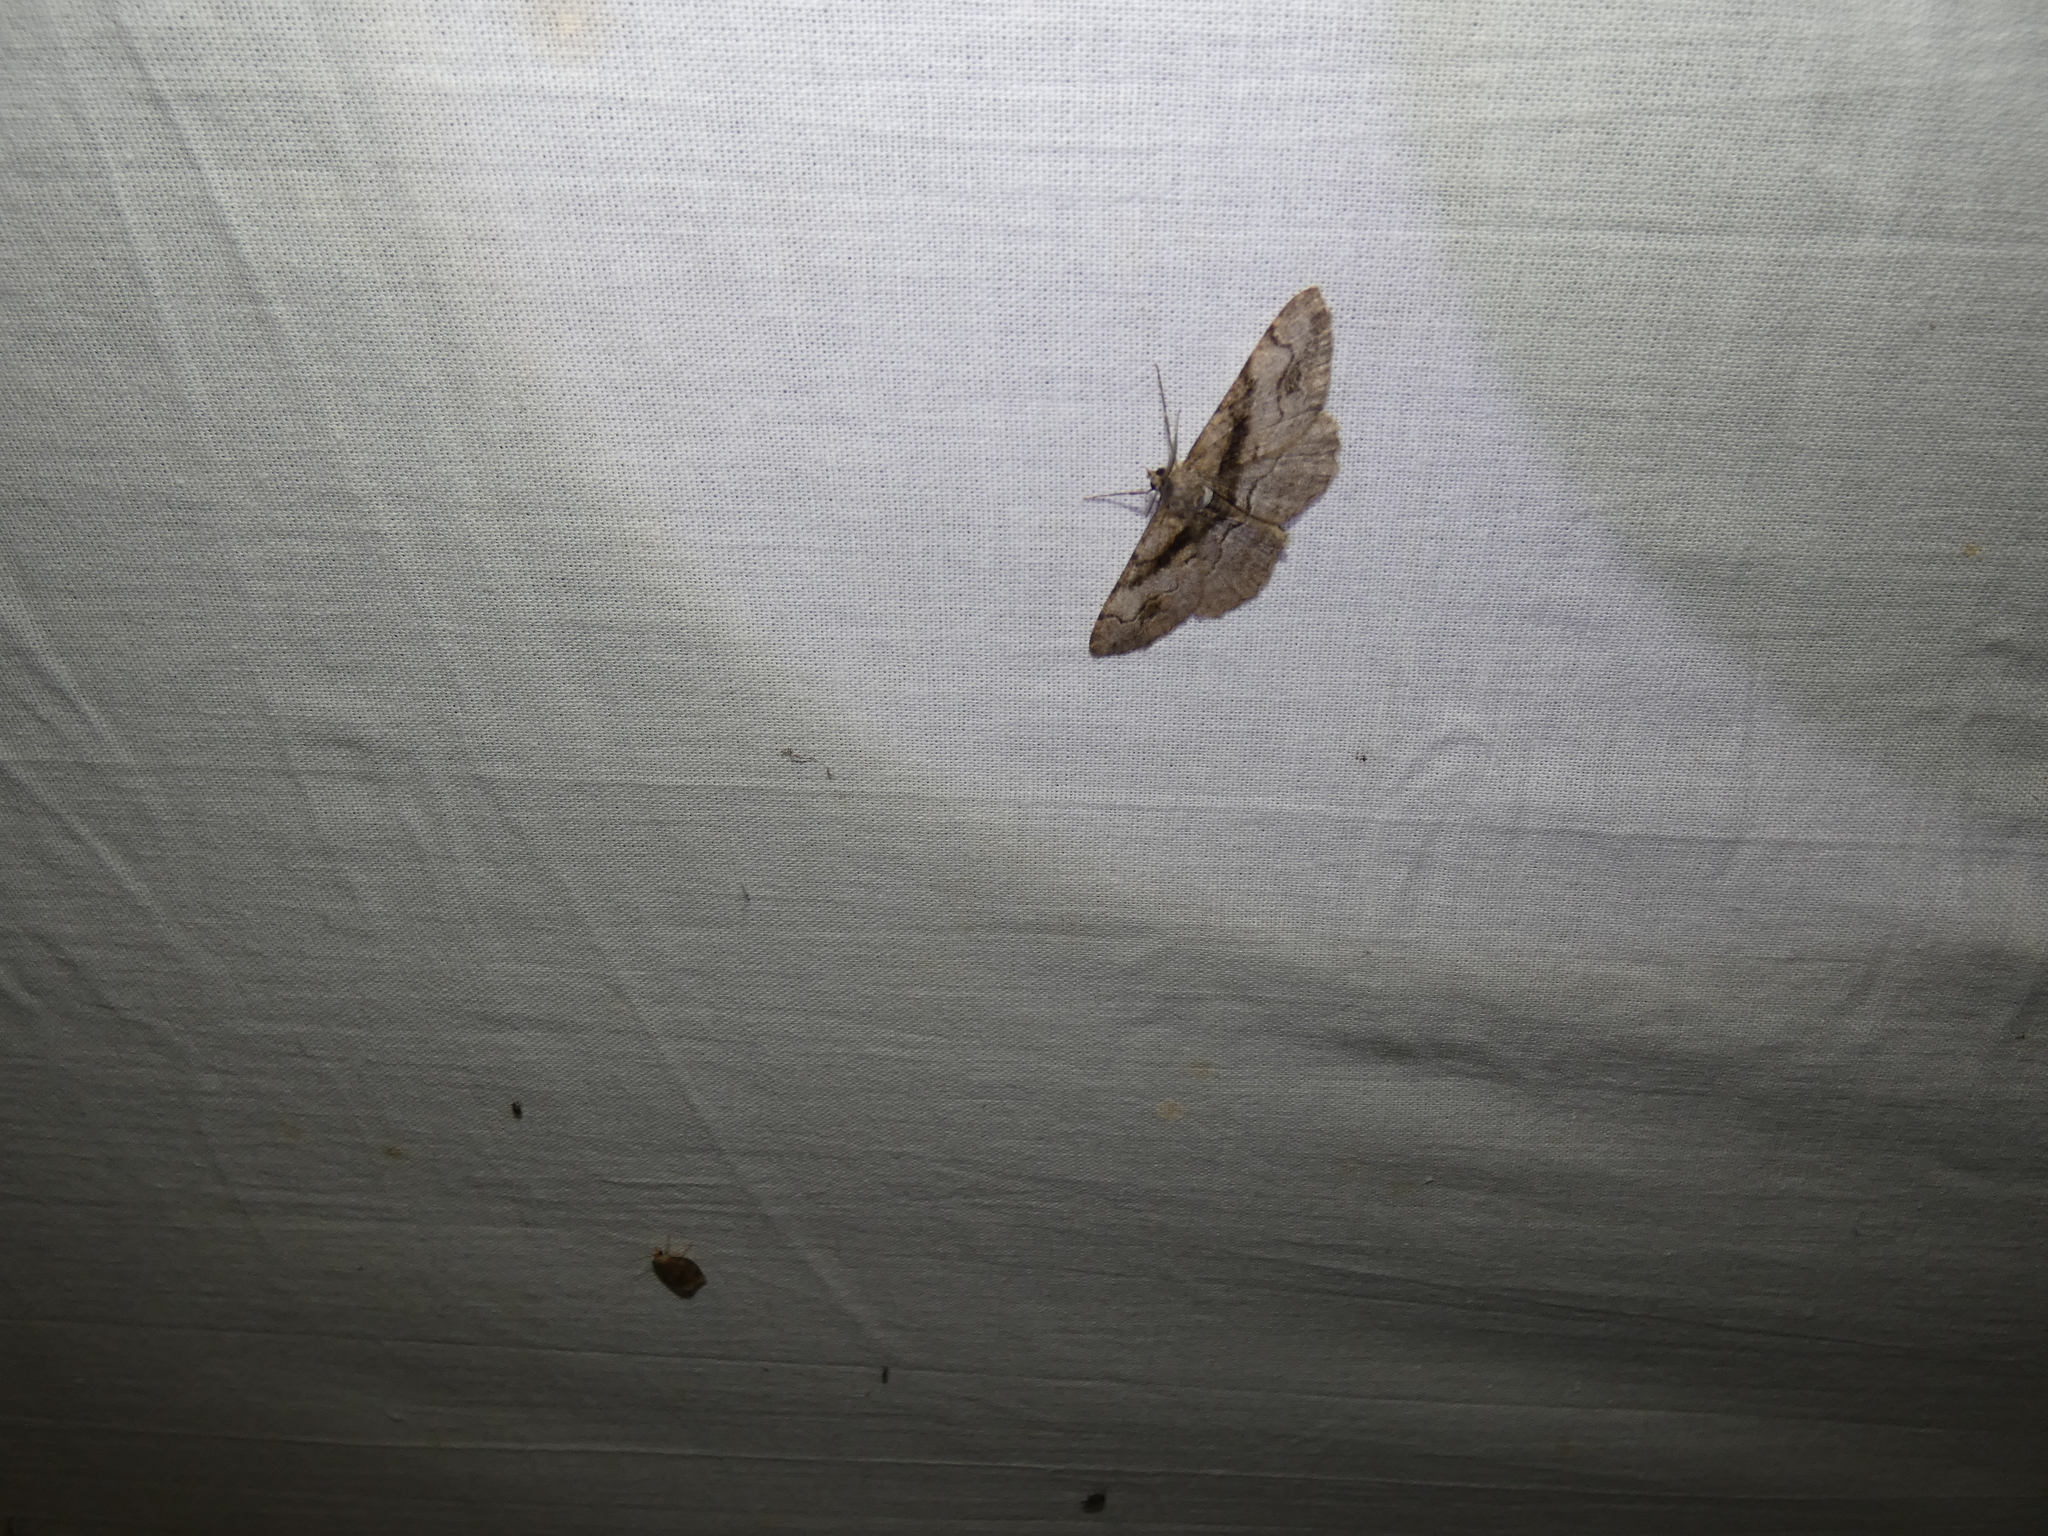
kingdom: Animalia
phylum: Arthropoda
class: Insecta
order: Lepidoptera
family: Geometridae
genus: Alcis
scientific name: Alcis deversata
